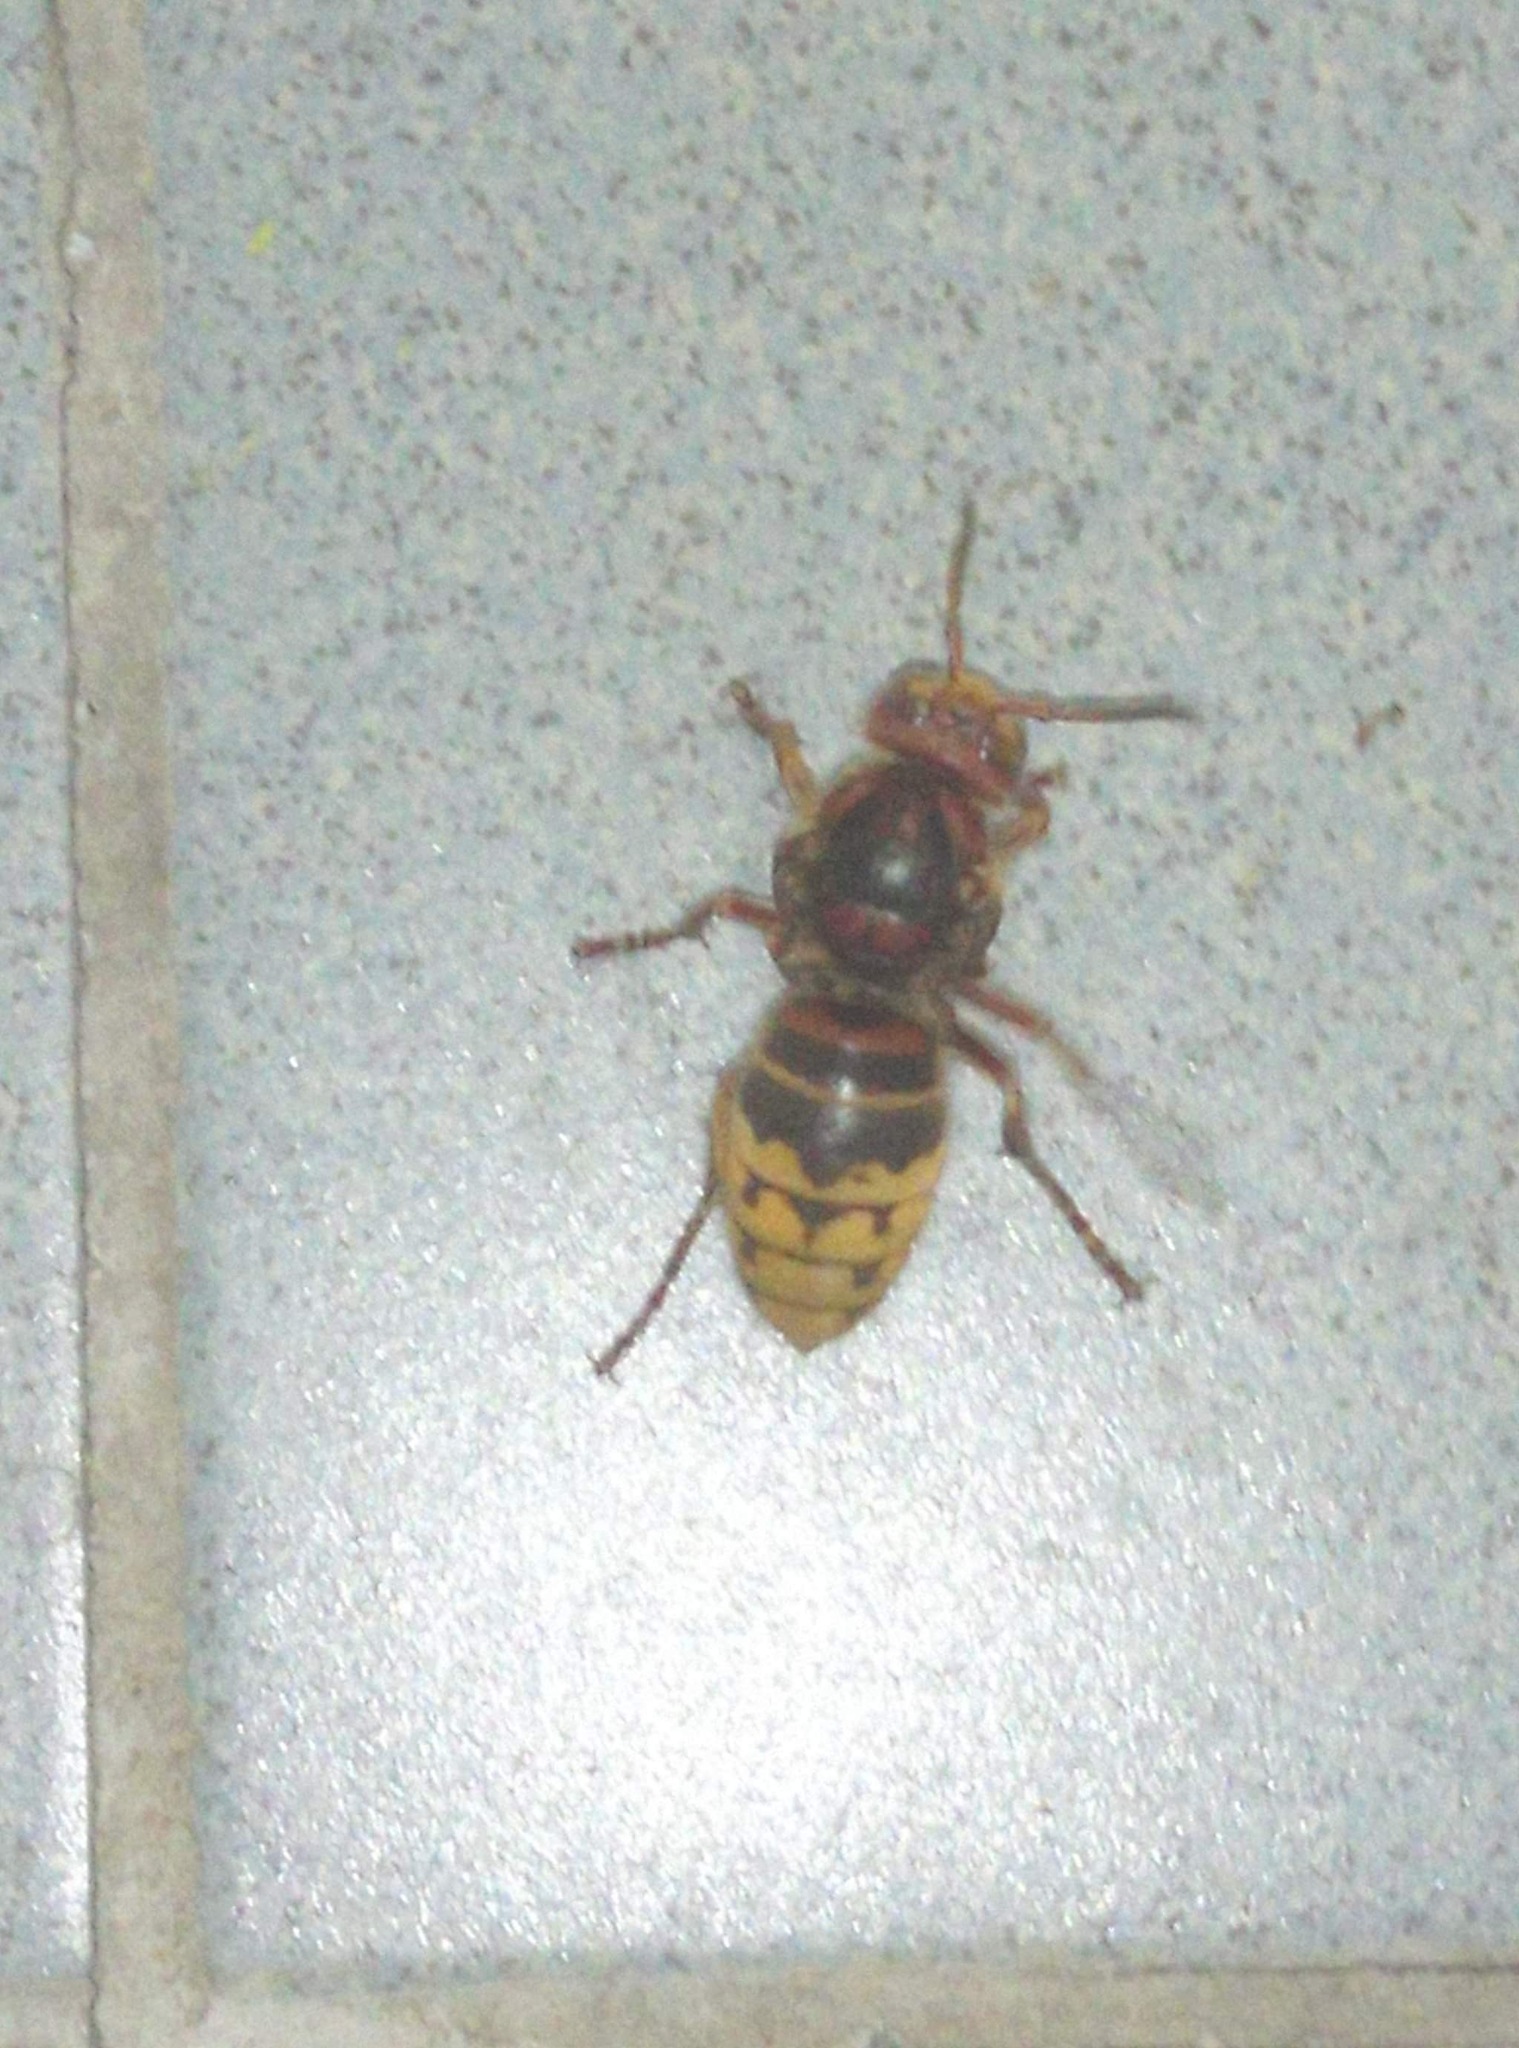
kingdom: Animalia
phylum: Arthropoda
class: Insecta
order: Hymenoptera
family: Vespidae
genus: Vespa
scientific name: Vespa crabro
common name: Hornet
